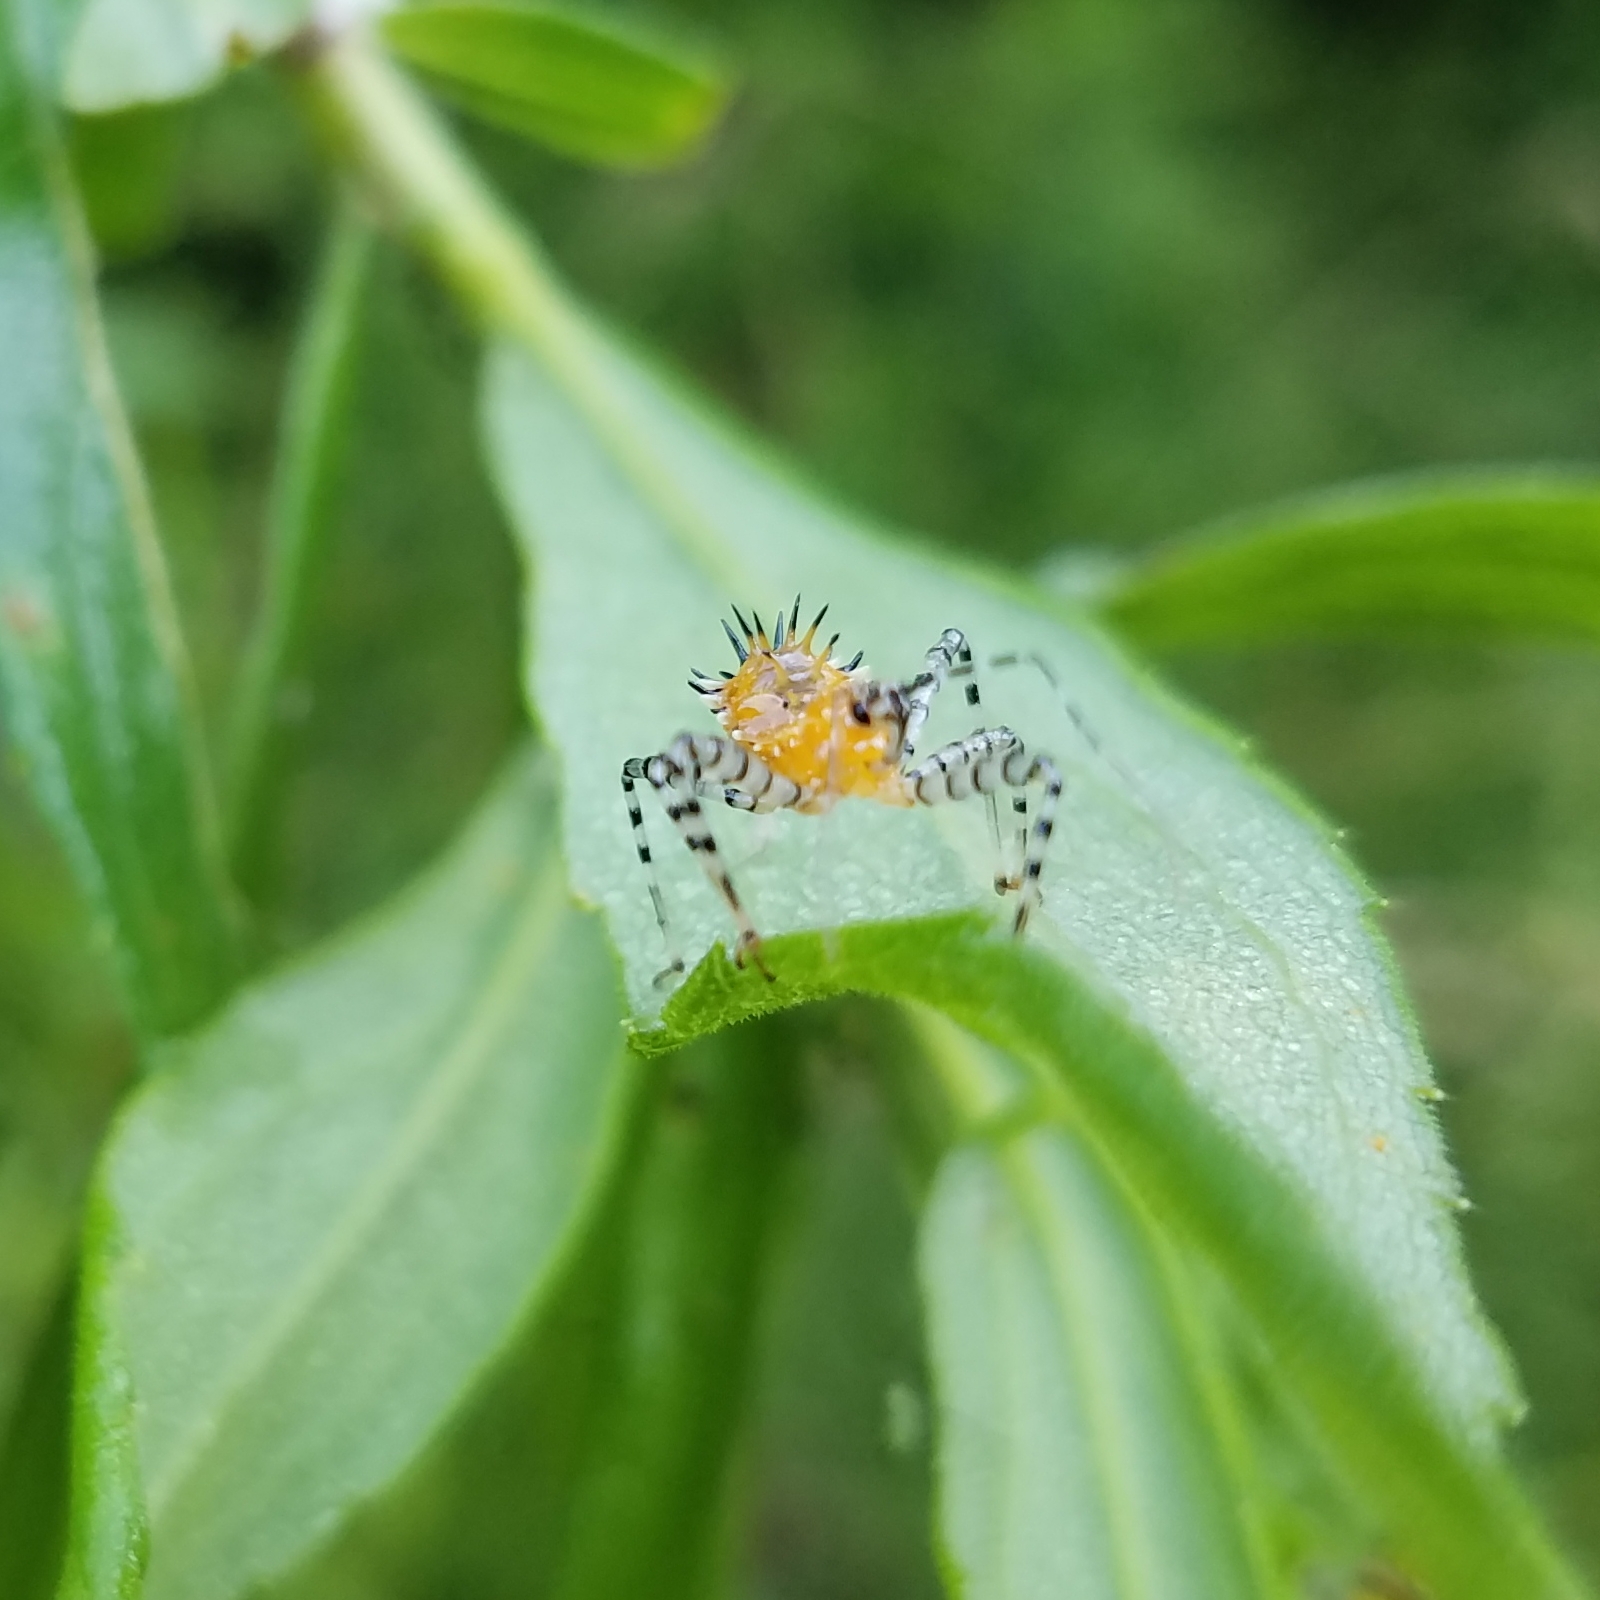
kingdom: Animalia
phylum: Arthropoda
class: Insecta
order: Hemiptera
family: Reduviidae
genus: Pselliopus
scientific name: Pselliopus cinctus
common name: Ringed assassin bug
